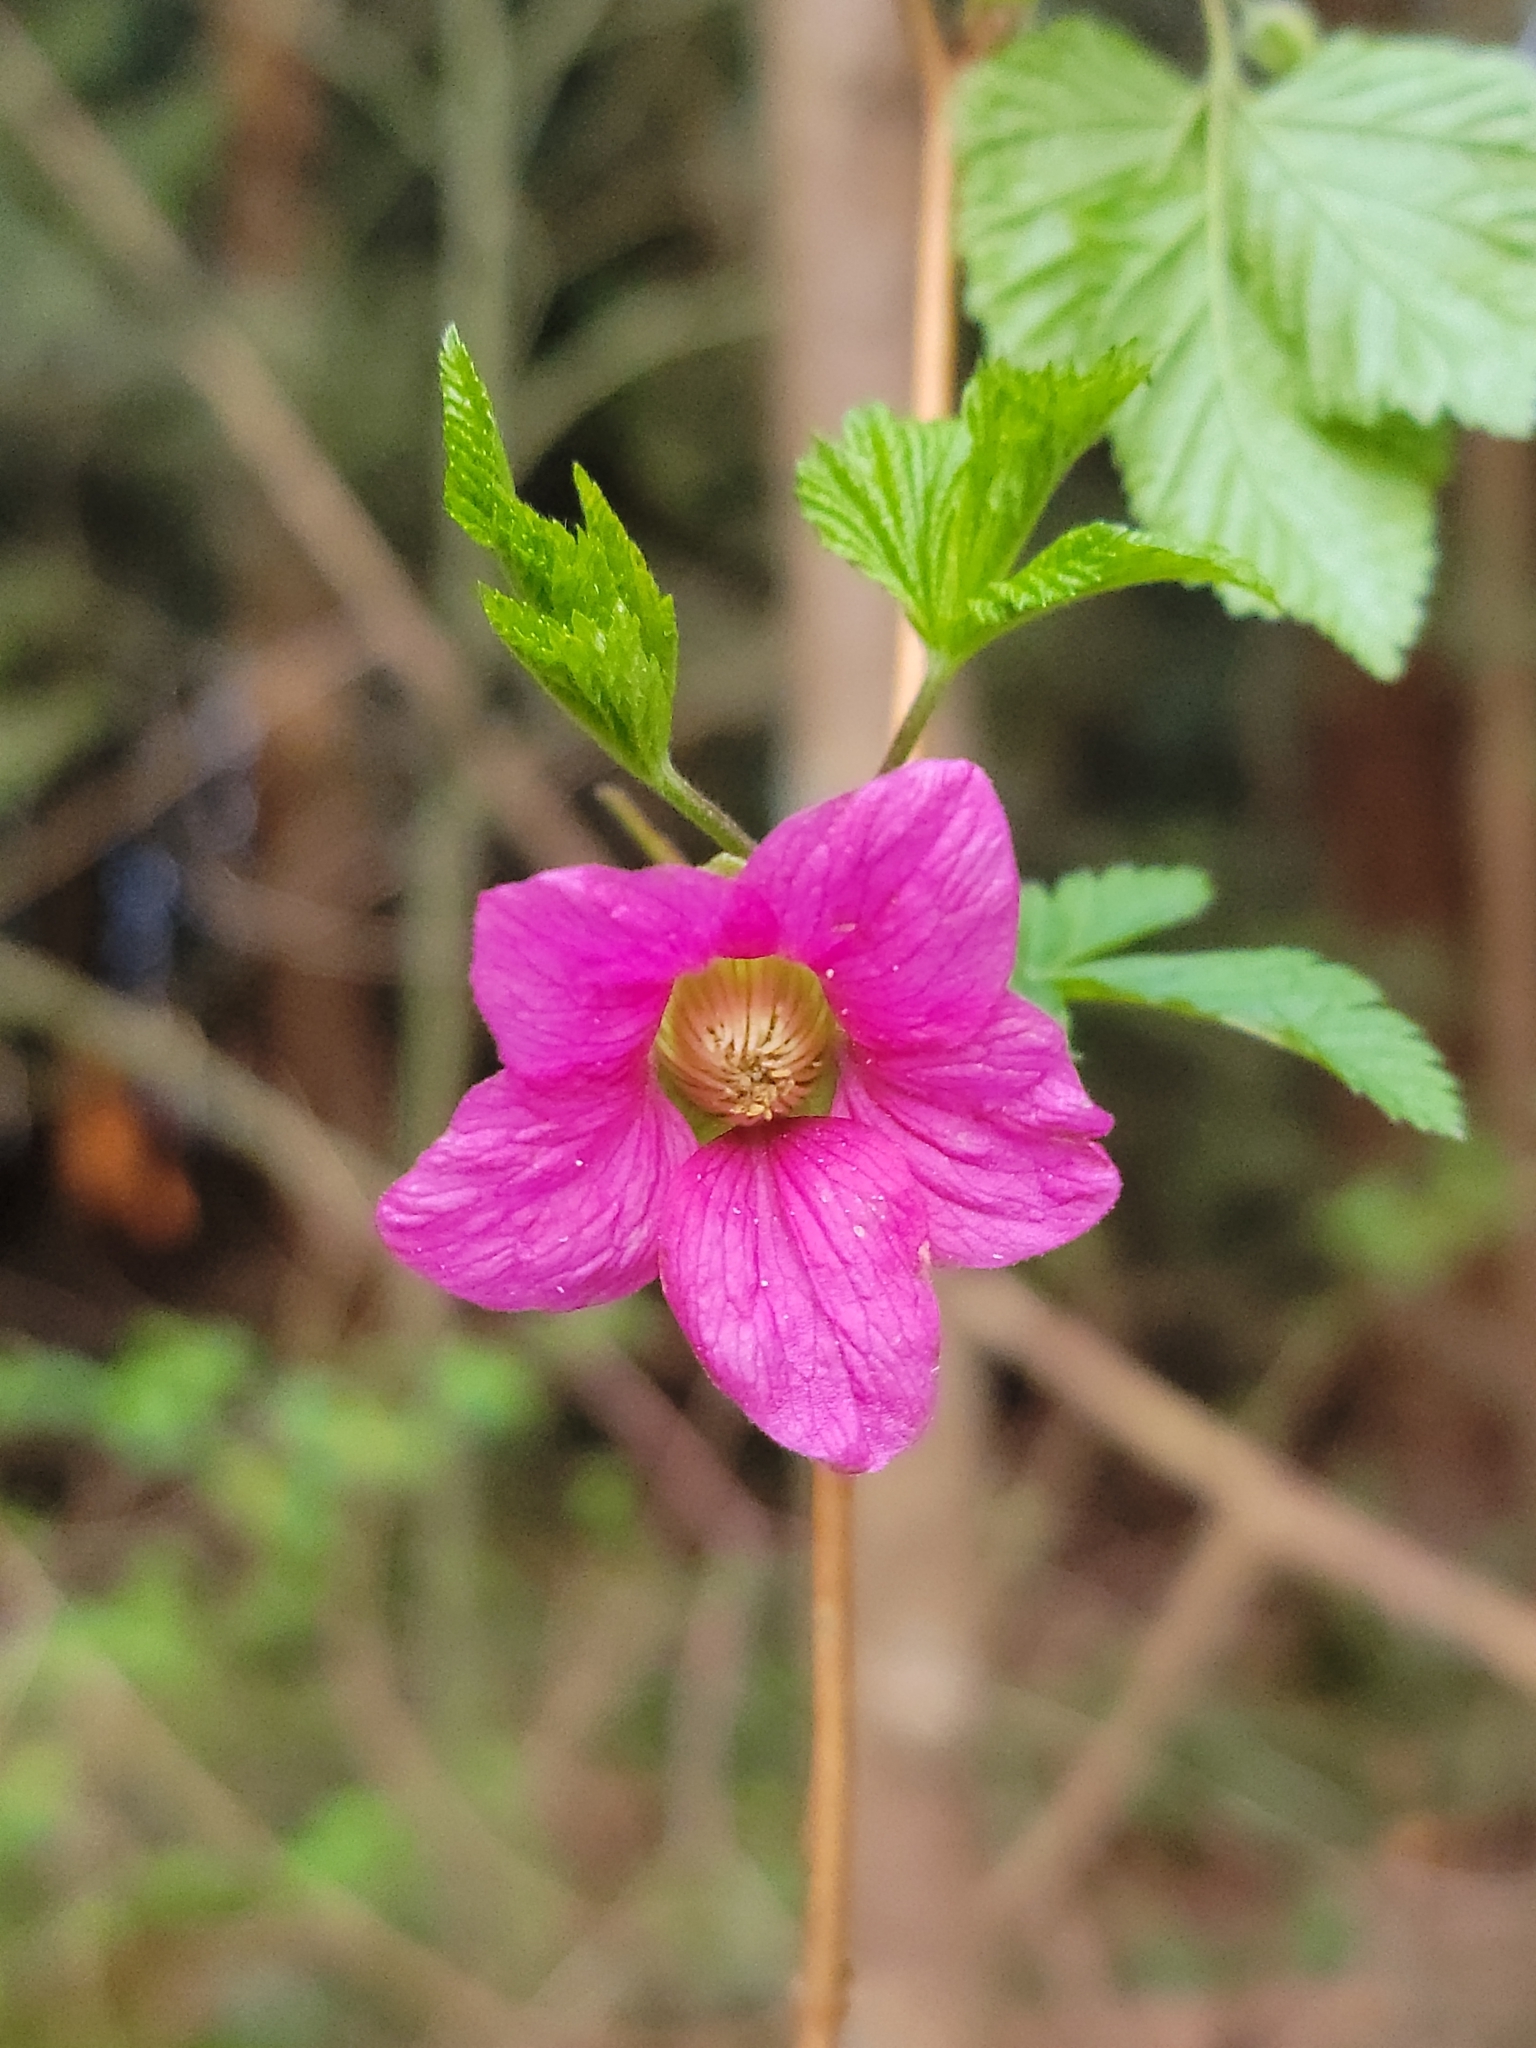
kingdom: Plantae
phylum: Tracheophyta
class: Magnoliopsida
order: Rosales
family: Rosaceae
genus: Rubus
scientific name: Rubus spectabilis
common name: Salmonberry
